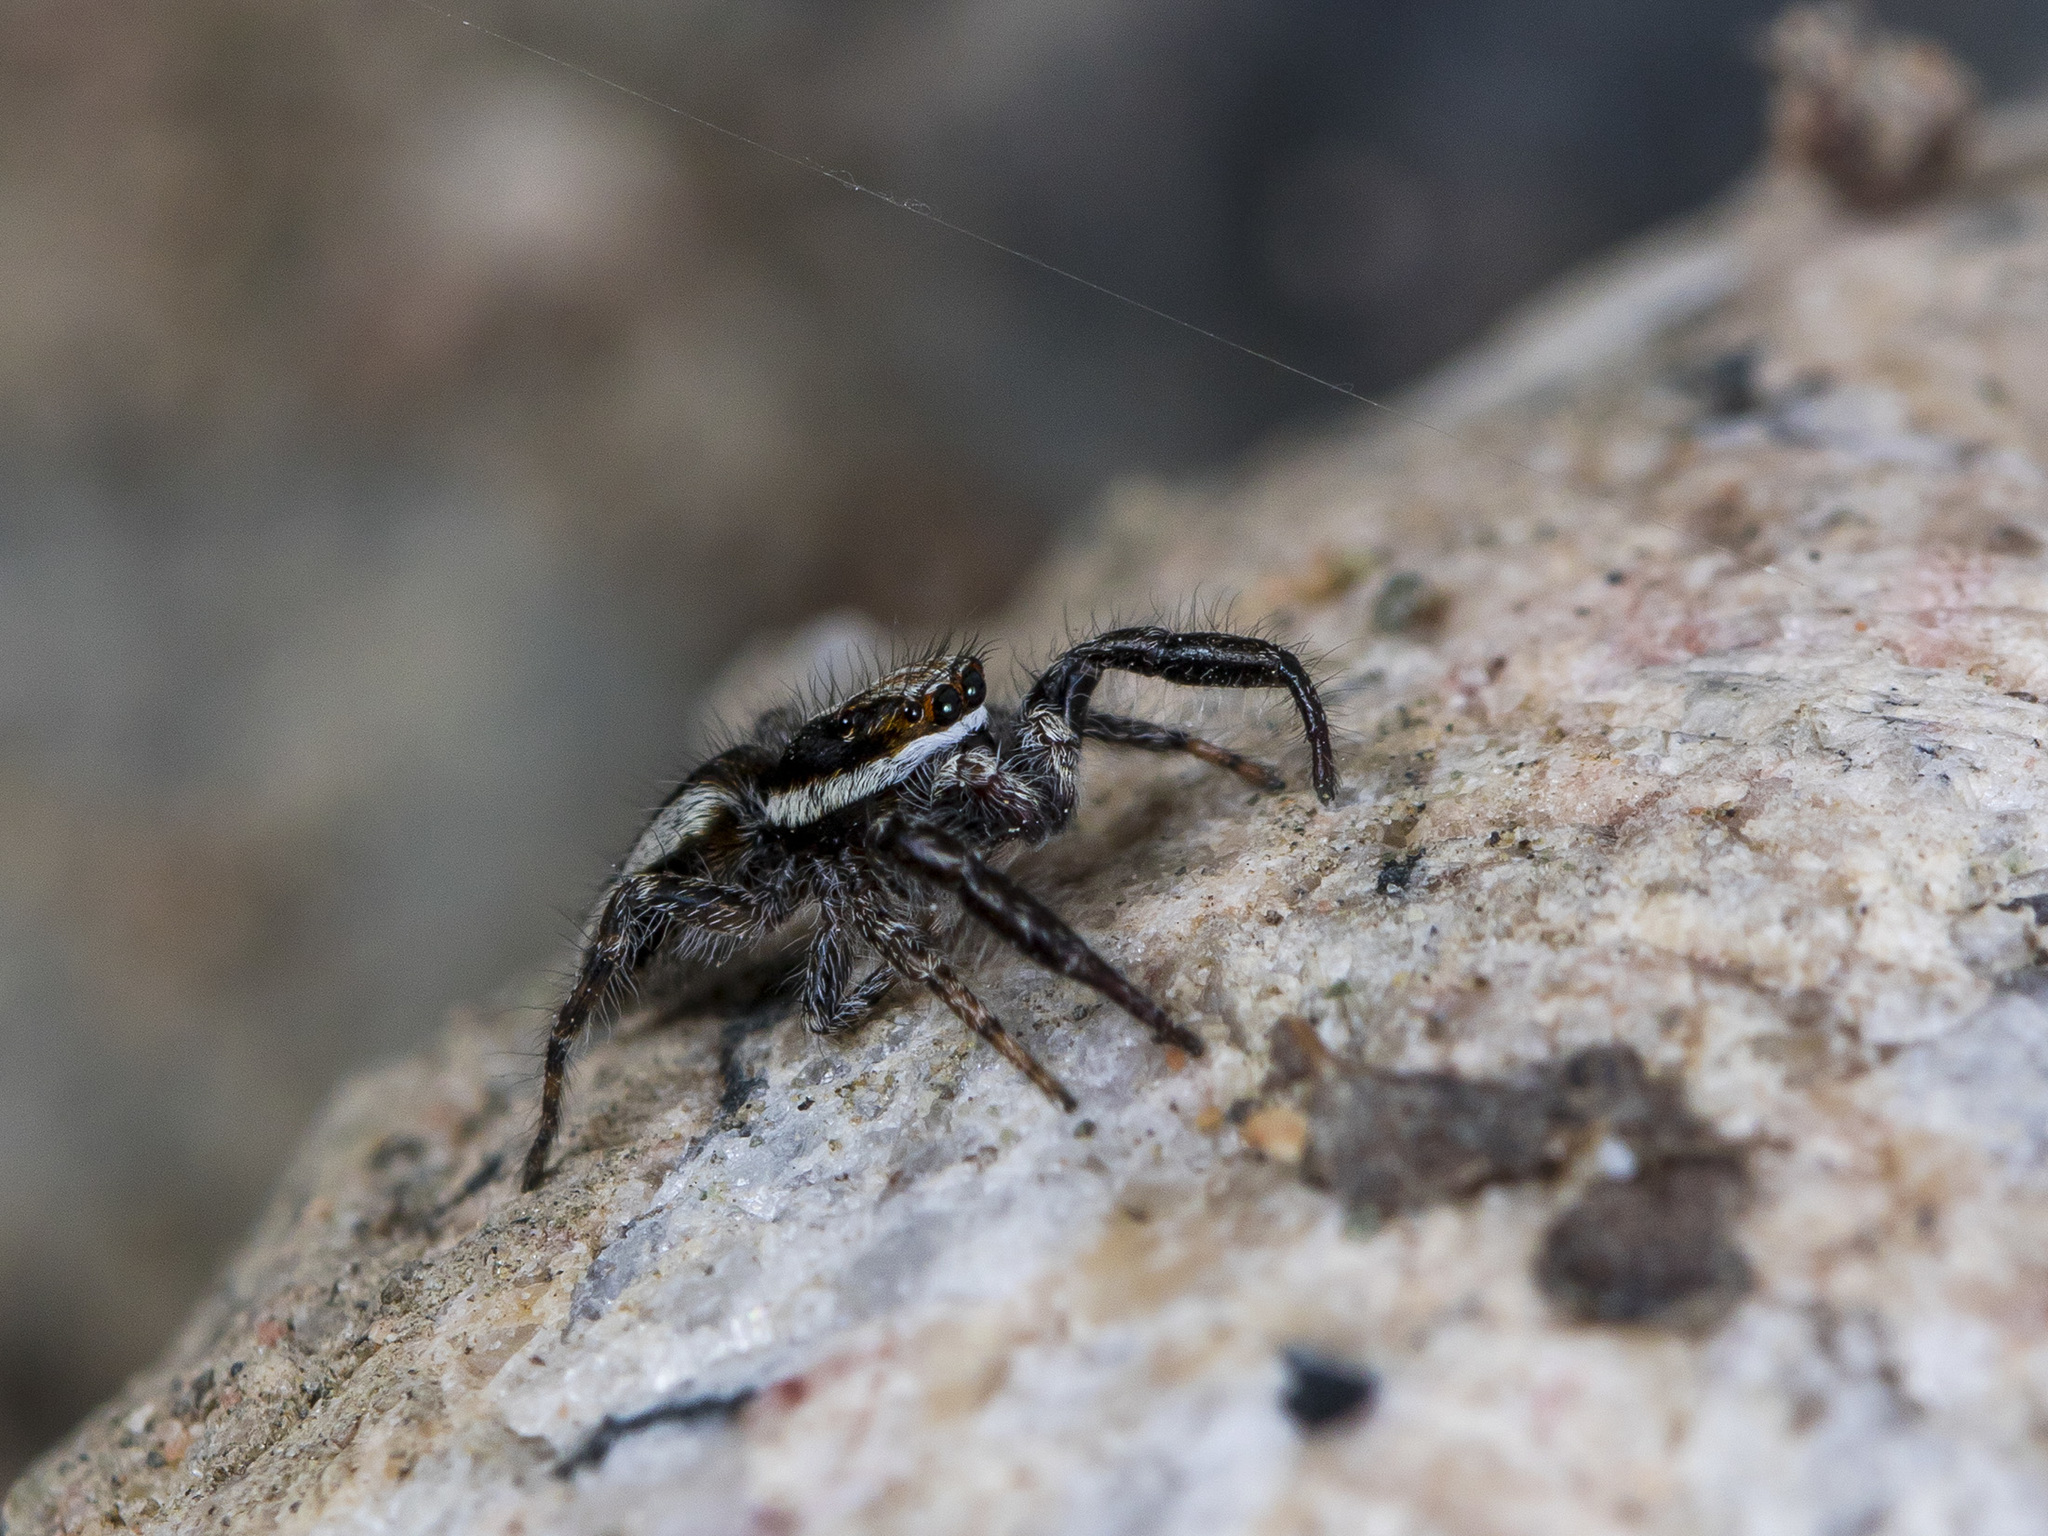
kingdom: Animalia
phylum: Arthropoda
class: Arachnida
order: Araneae
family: Salticidae
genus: Pseudicius
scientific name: Pseudicius encarpatus
